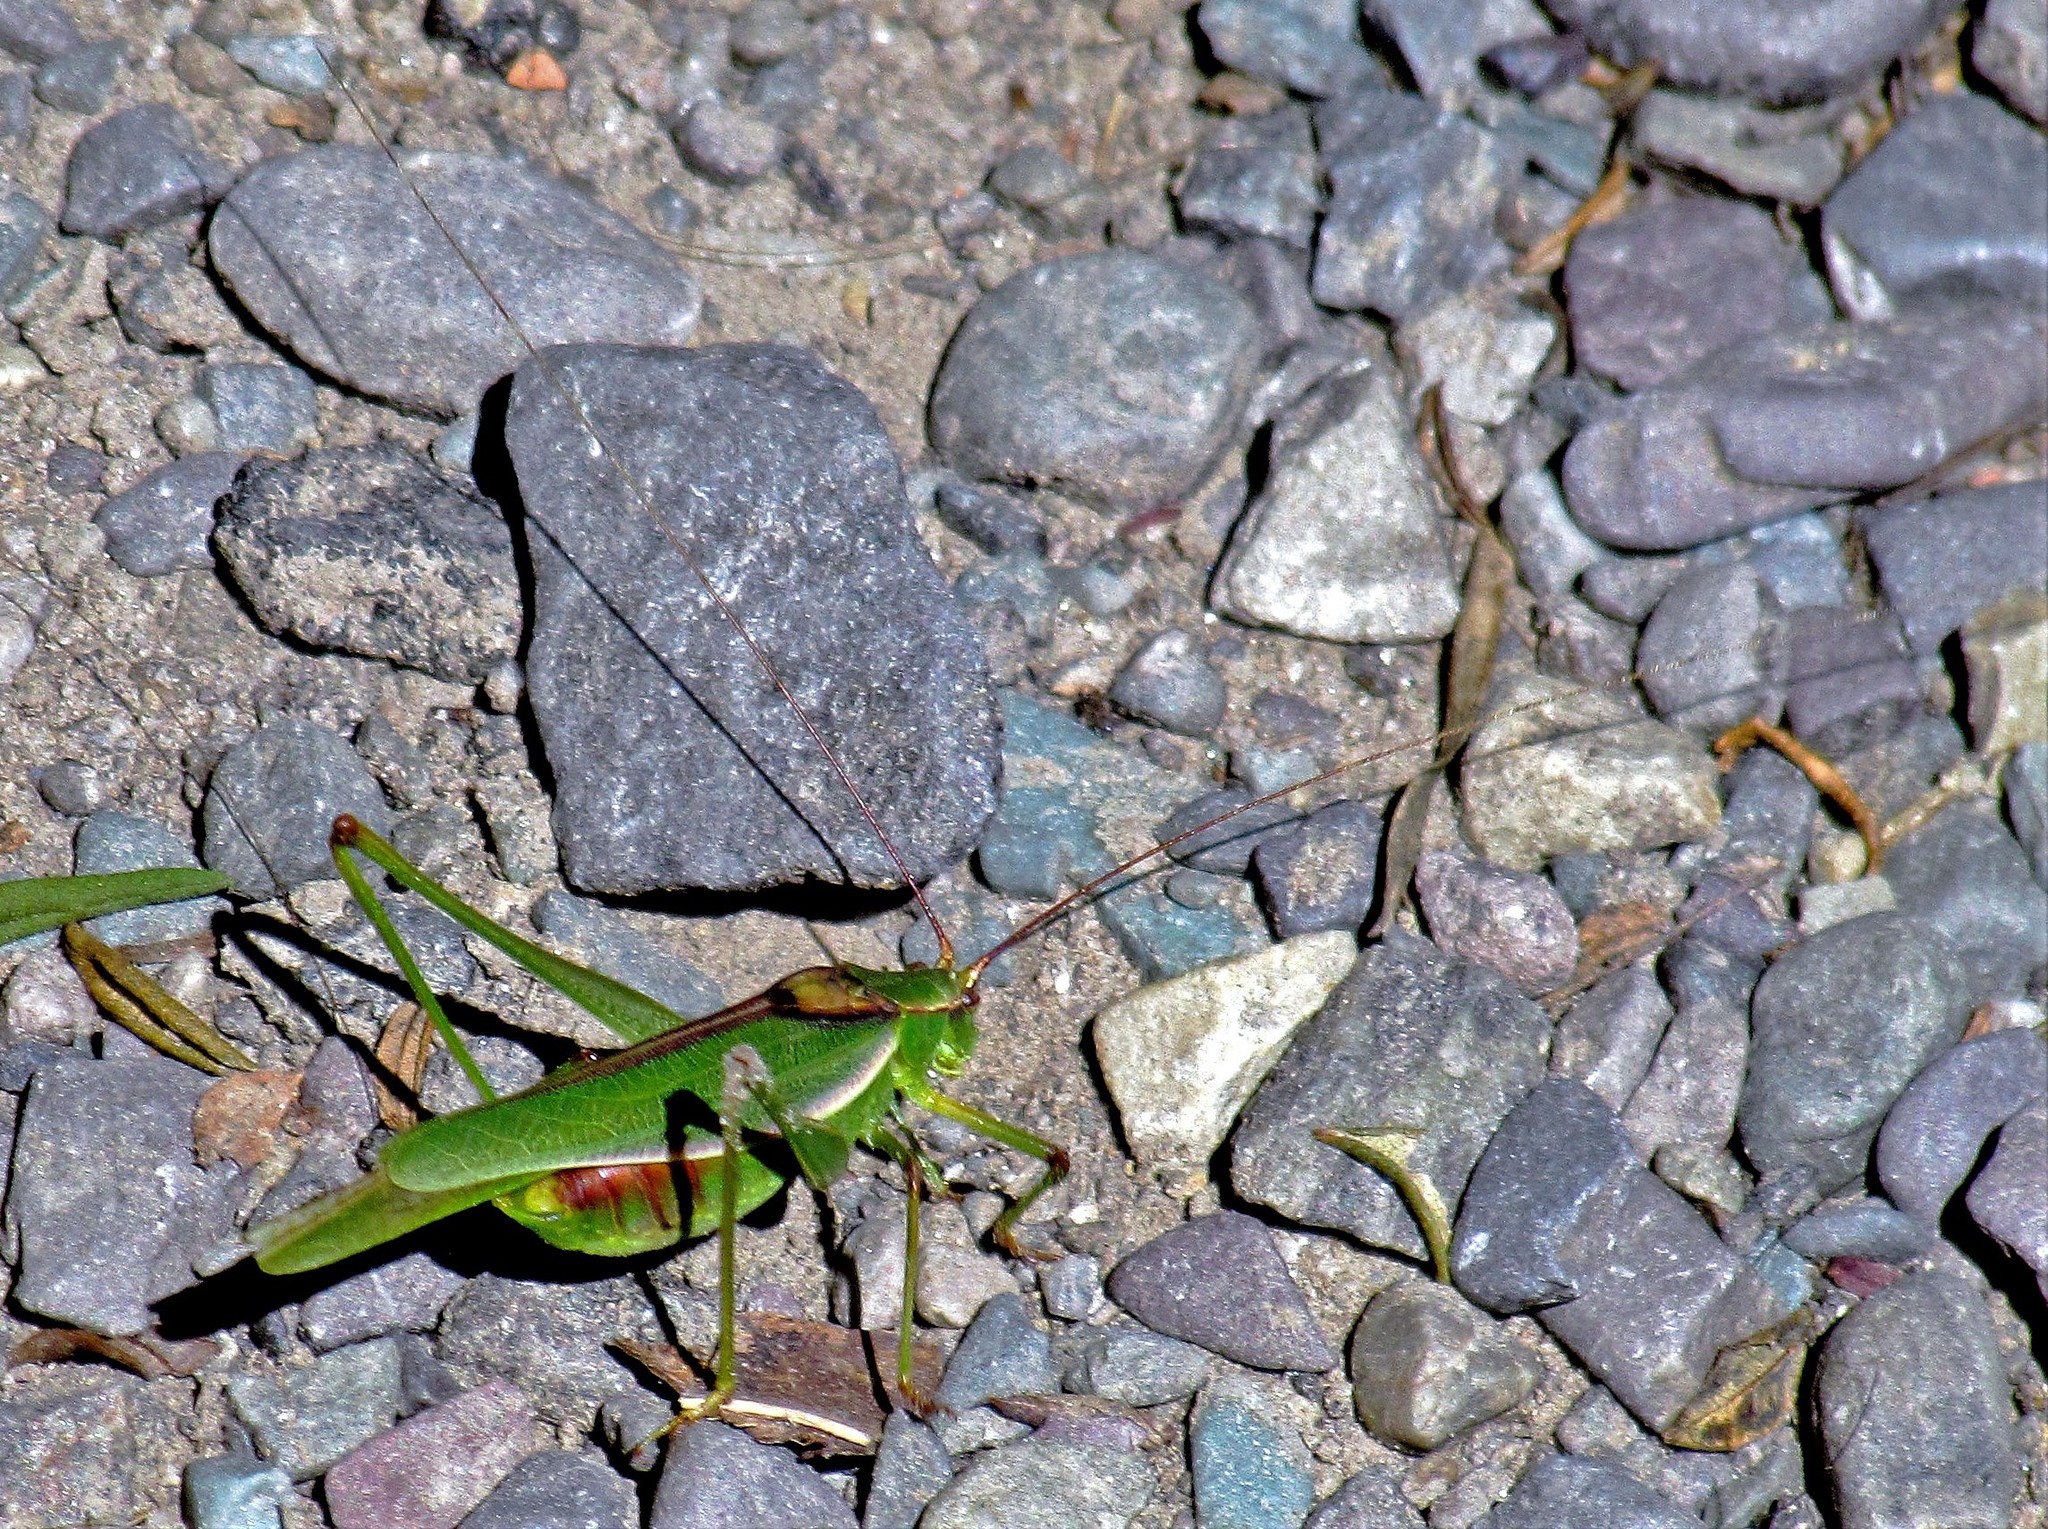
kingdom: Animalia
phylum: Arthropoda
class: Insecta
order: Orthoptera
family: Tettigoniidae
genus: Burgilis
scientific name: Burgilis grandis
